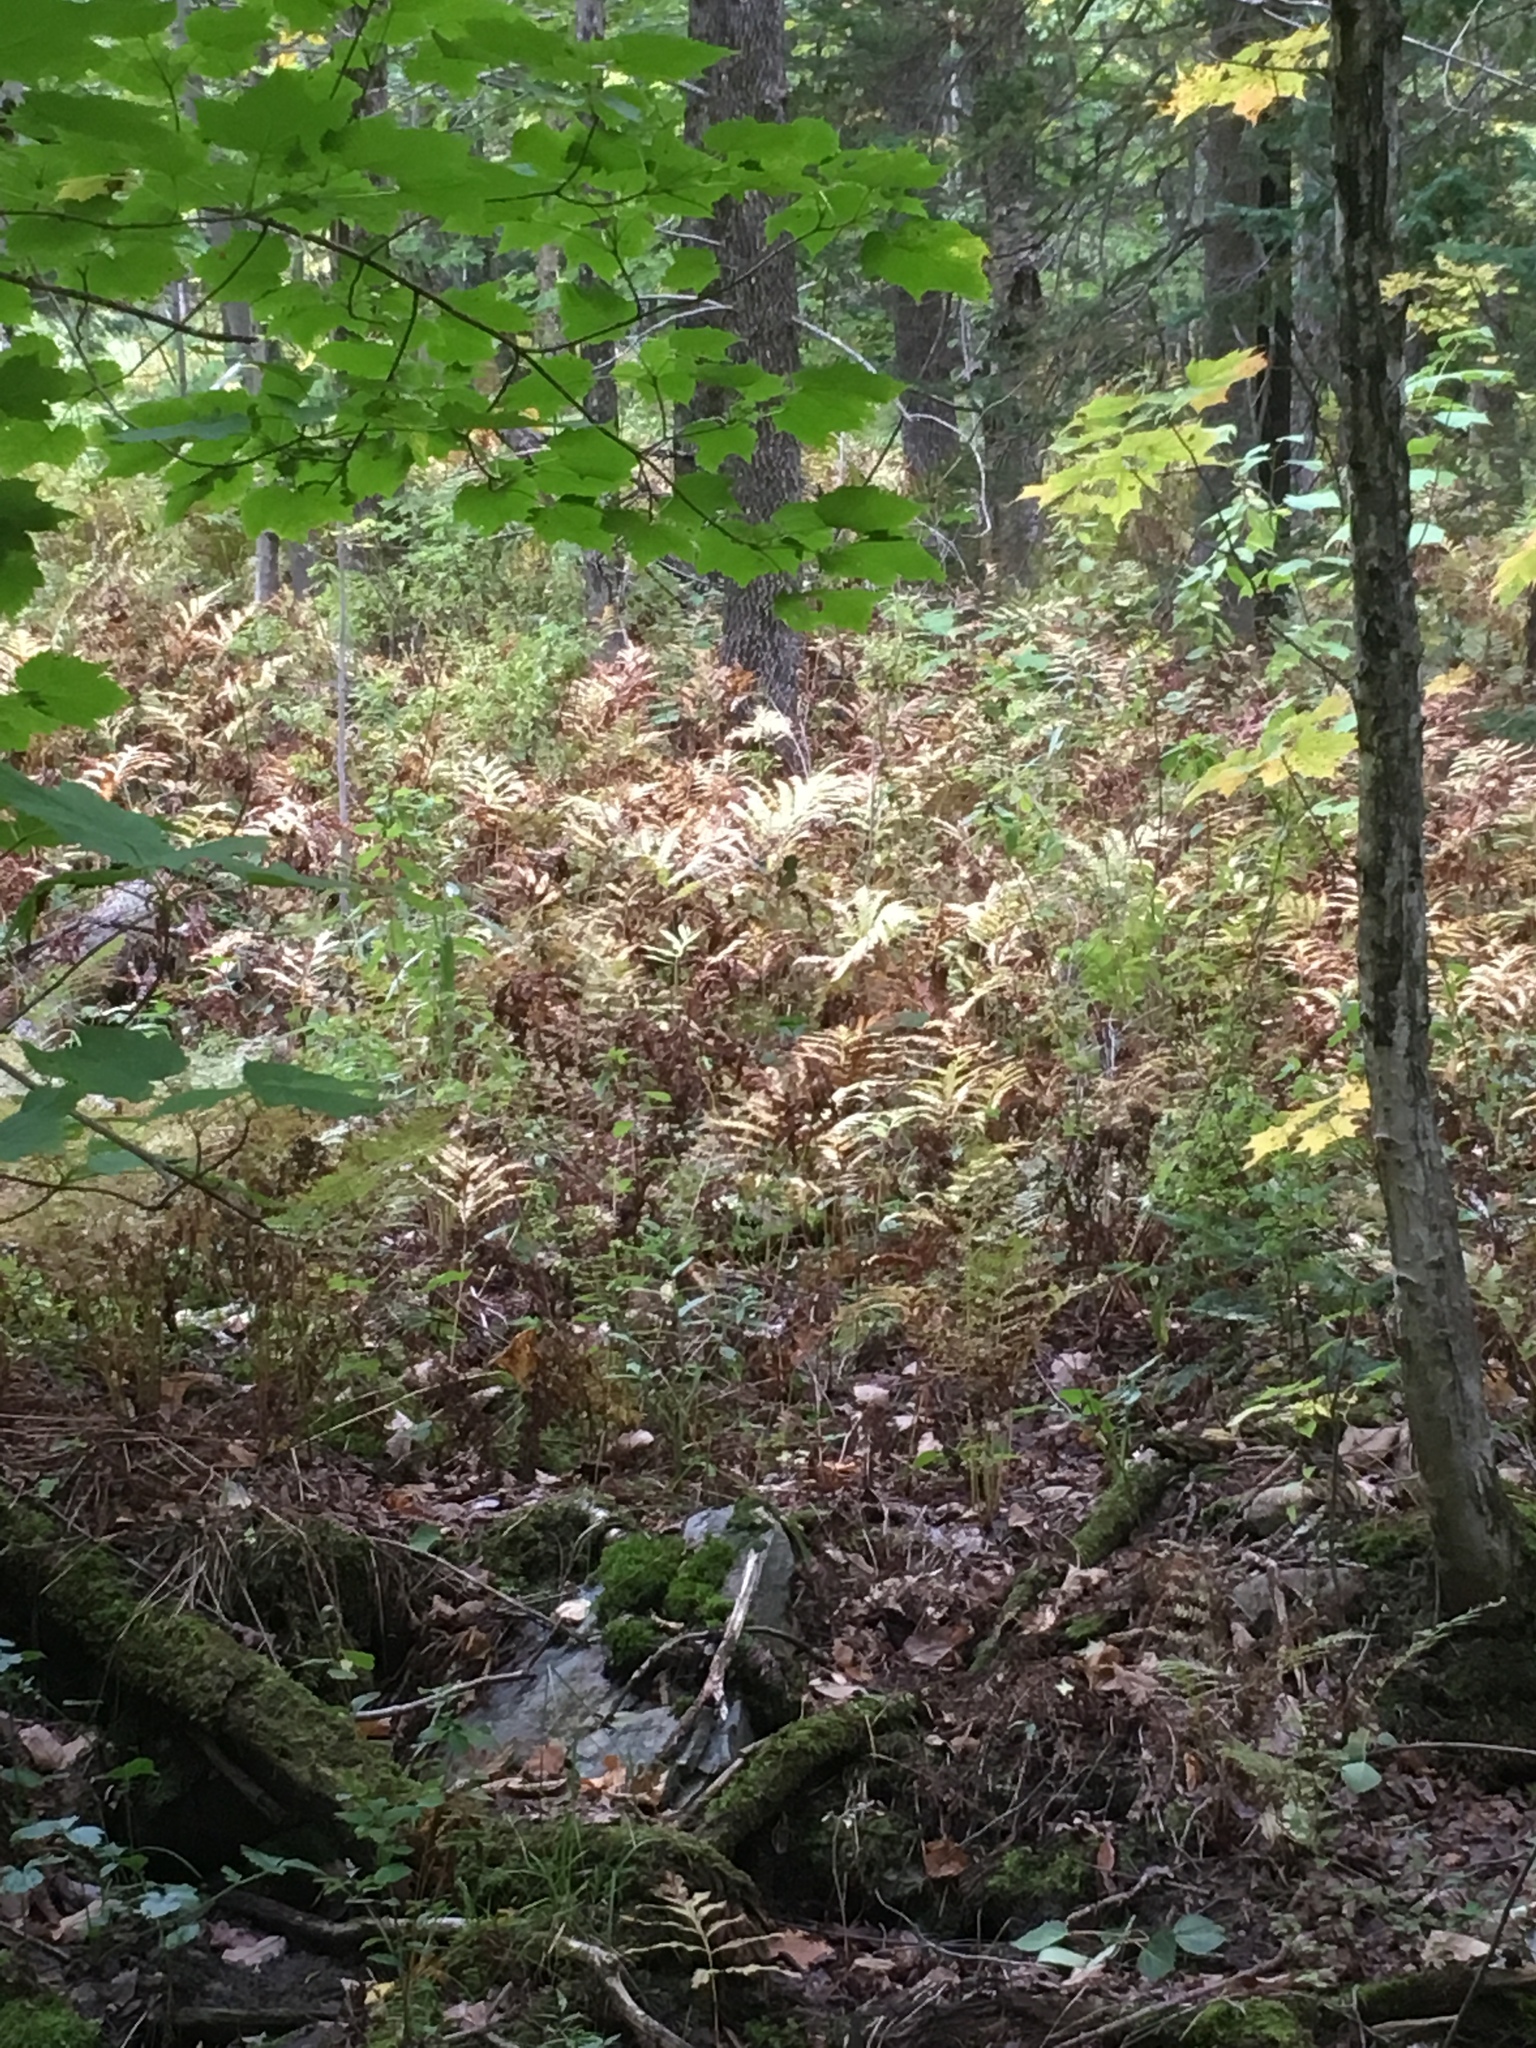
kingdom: Plantae
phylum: Tracheophyta
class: Polypodiopsida
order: Polypodiales
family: Onocleaceae
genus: Onoclea
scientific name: Onoclea sensibilis
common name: Sensitive fern
